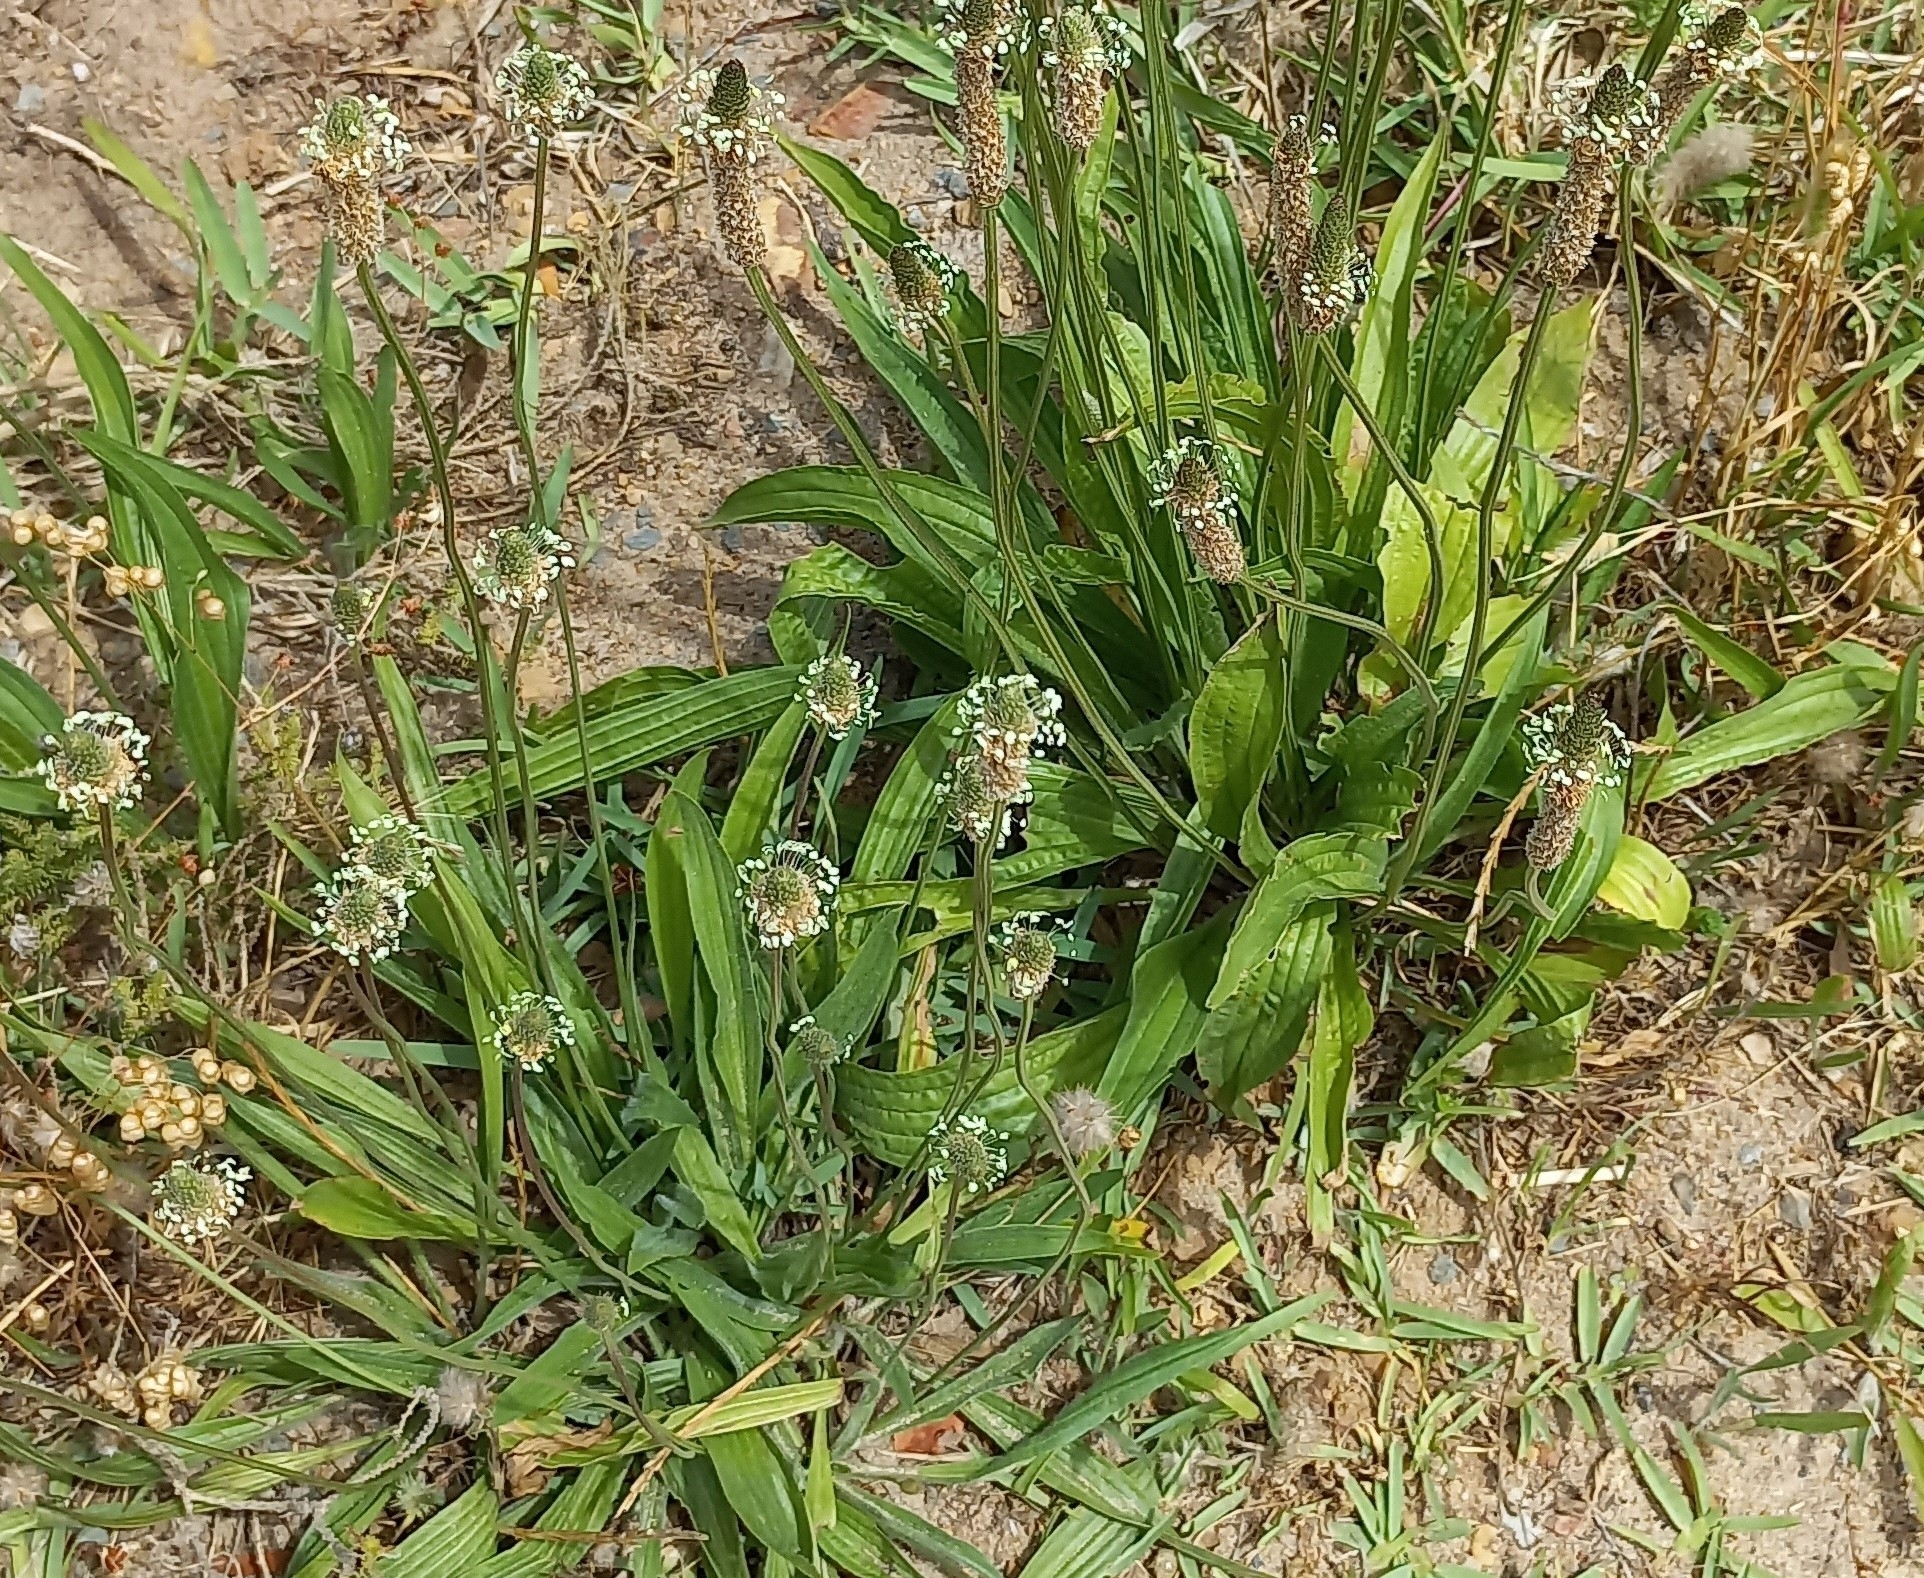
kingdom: Plantae
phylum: Tracheophyta
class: Magnoliopsida
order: Lamiales
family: Plantaginaceae
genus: Plantago
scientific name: Plantago lanceolata
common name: Ribwort plantain
